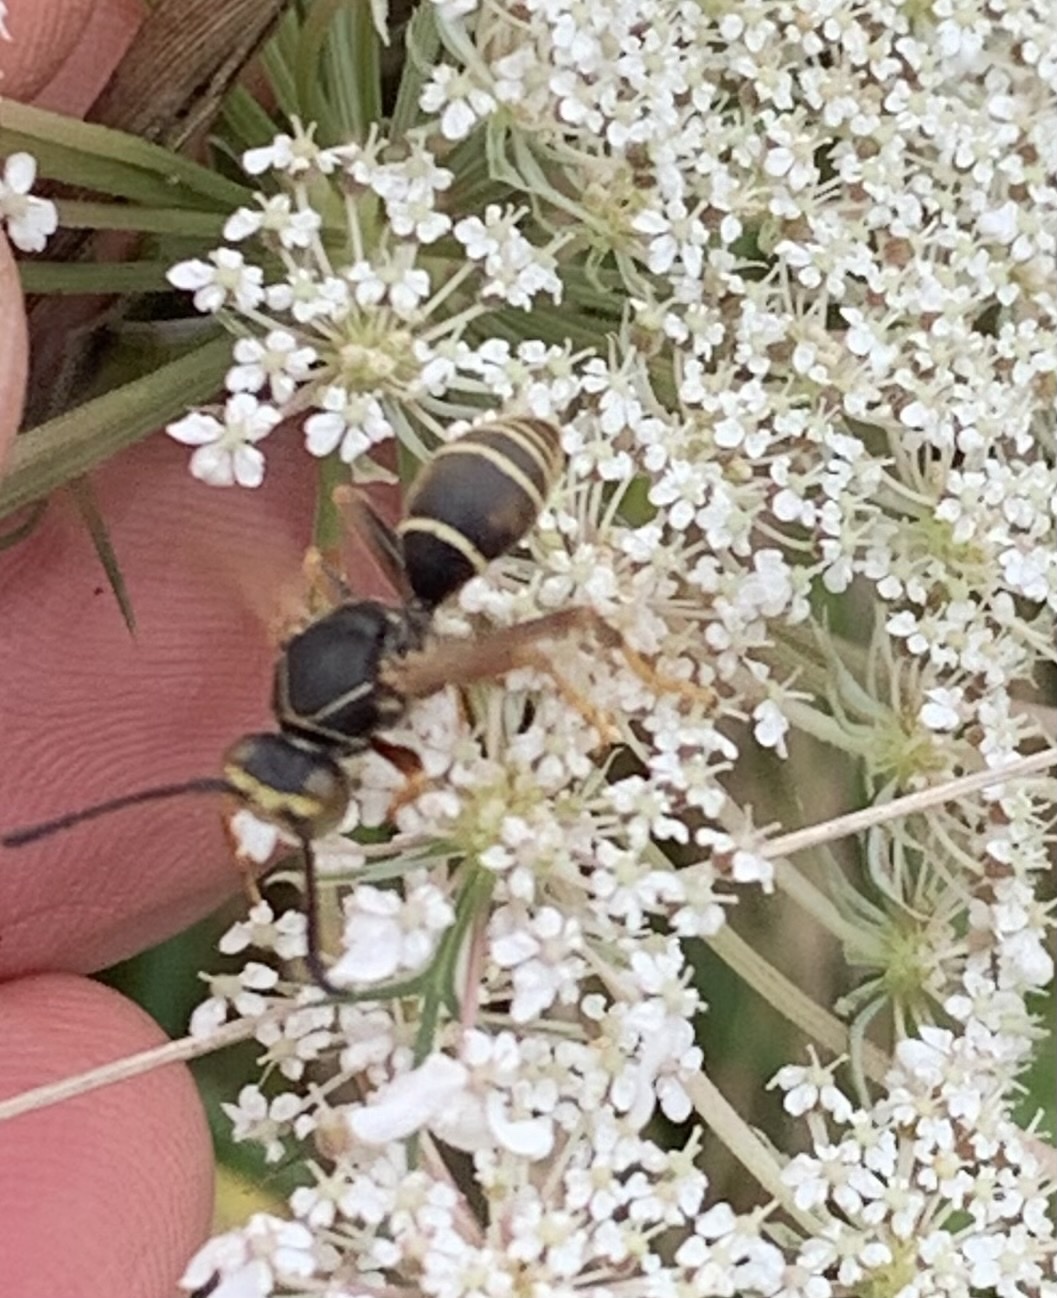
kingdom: Animalia
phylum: Arthropoda
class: Insecta
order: Hymenoptera
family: Eumenidae
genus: Polistes
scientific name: Polistes fuscatus
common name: Dark paper wasp
